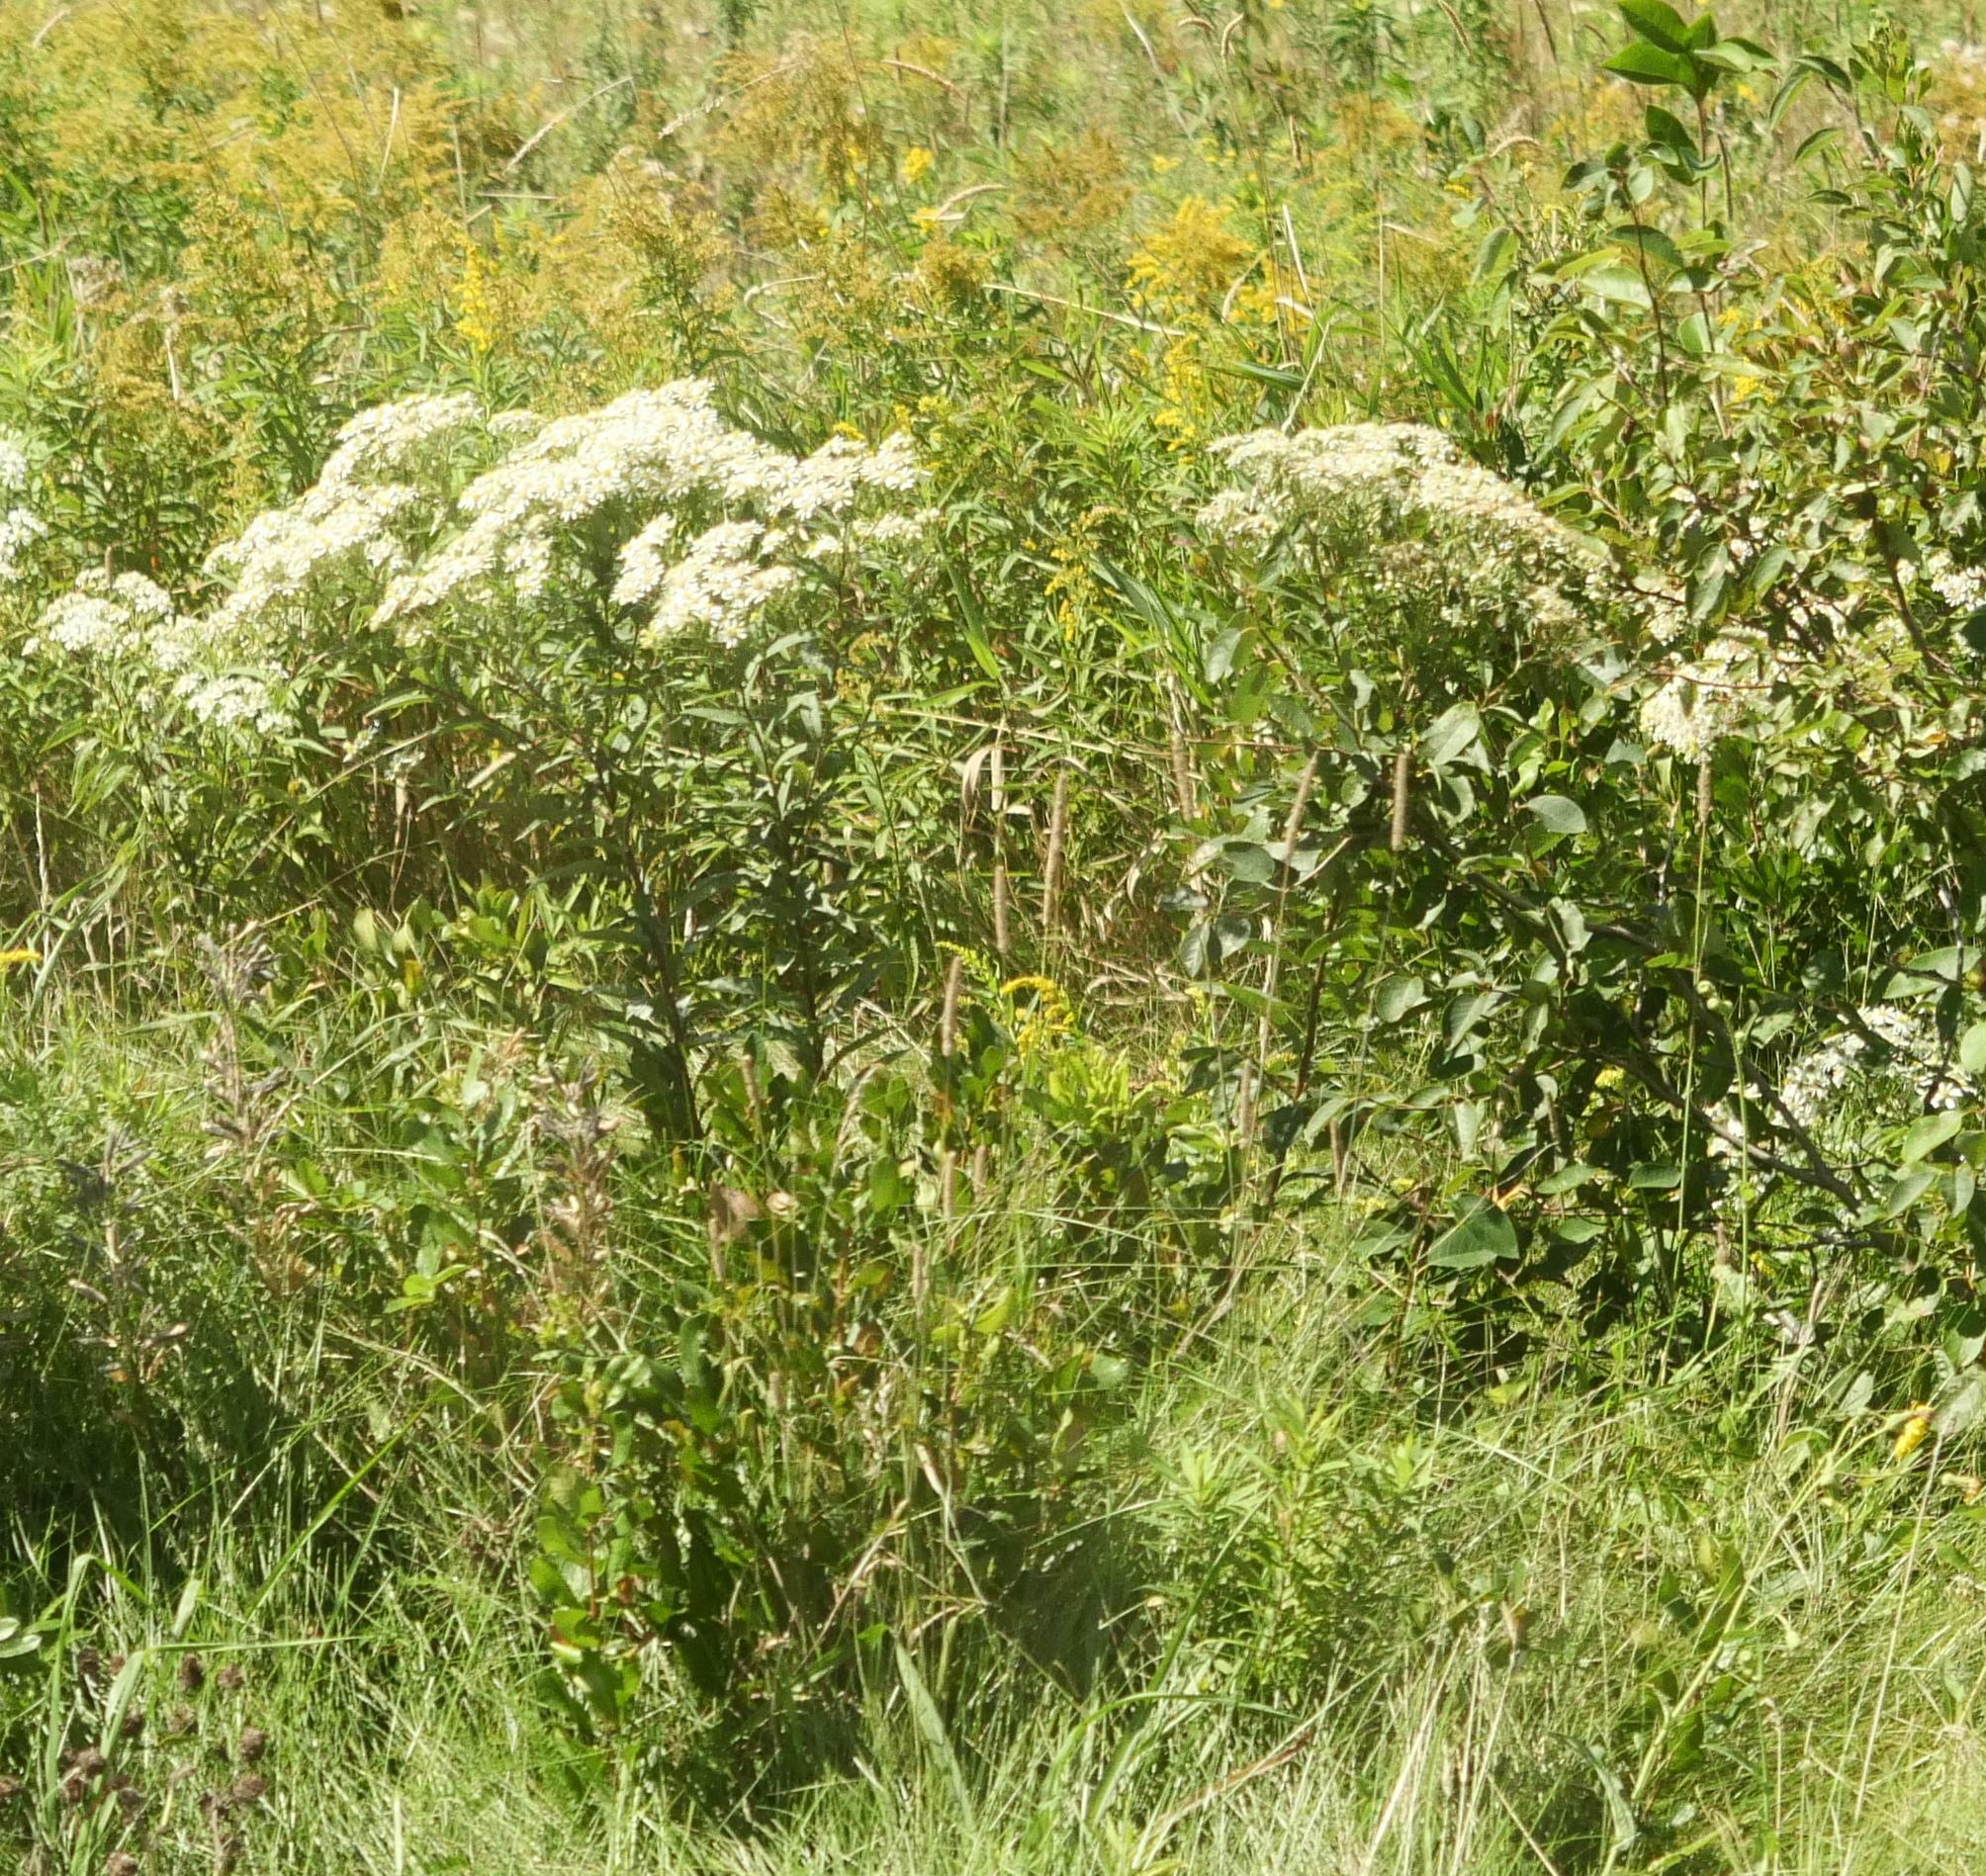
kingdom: Plantae
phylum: Tracheophyta
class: Magnoliopsida
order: Asterales
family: Asteraceae
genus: Doellingeria
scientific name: Doellingeria umbellata
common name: Flat-top white aster
